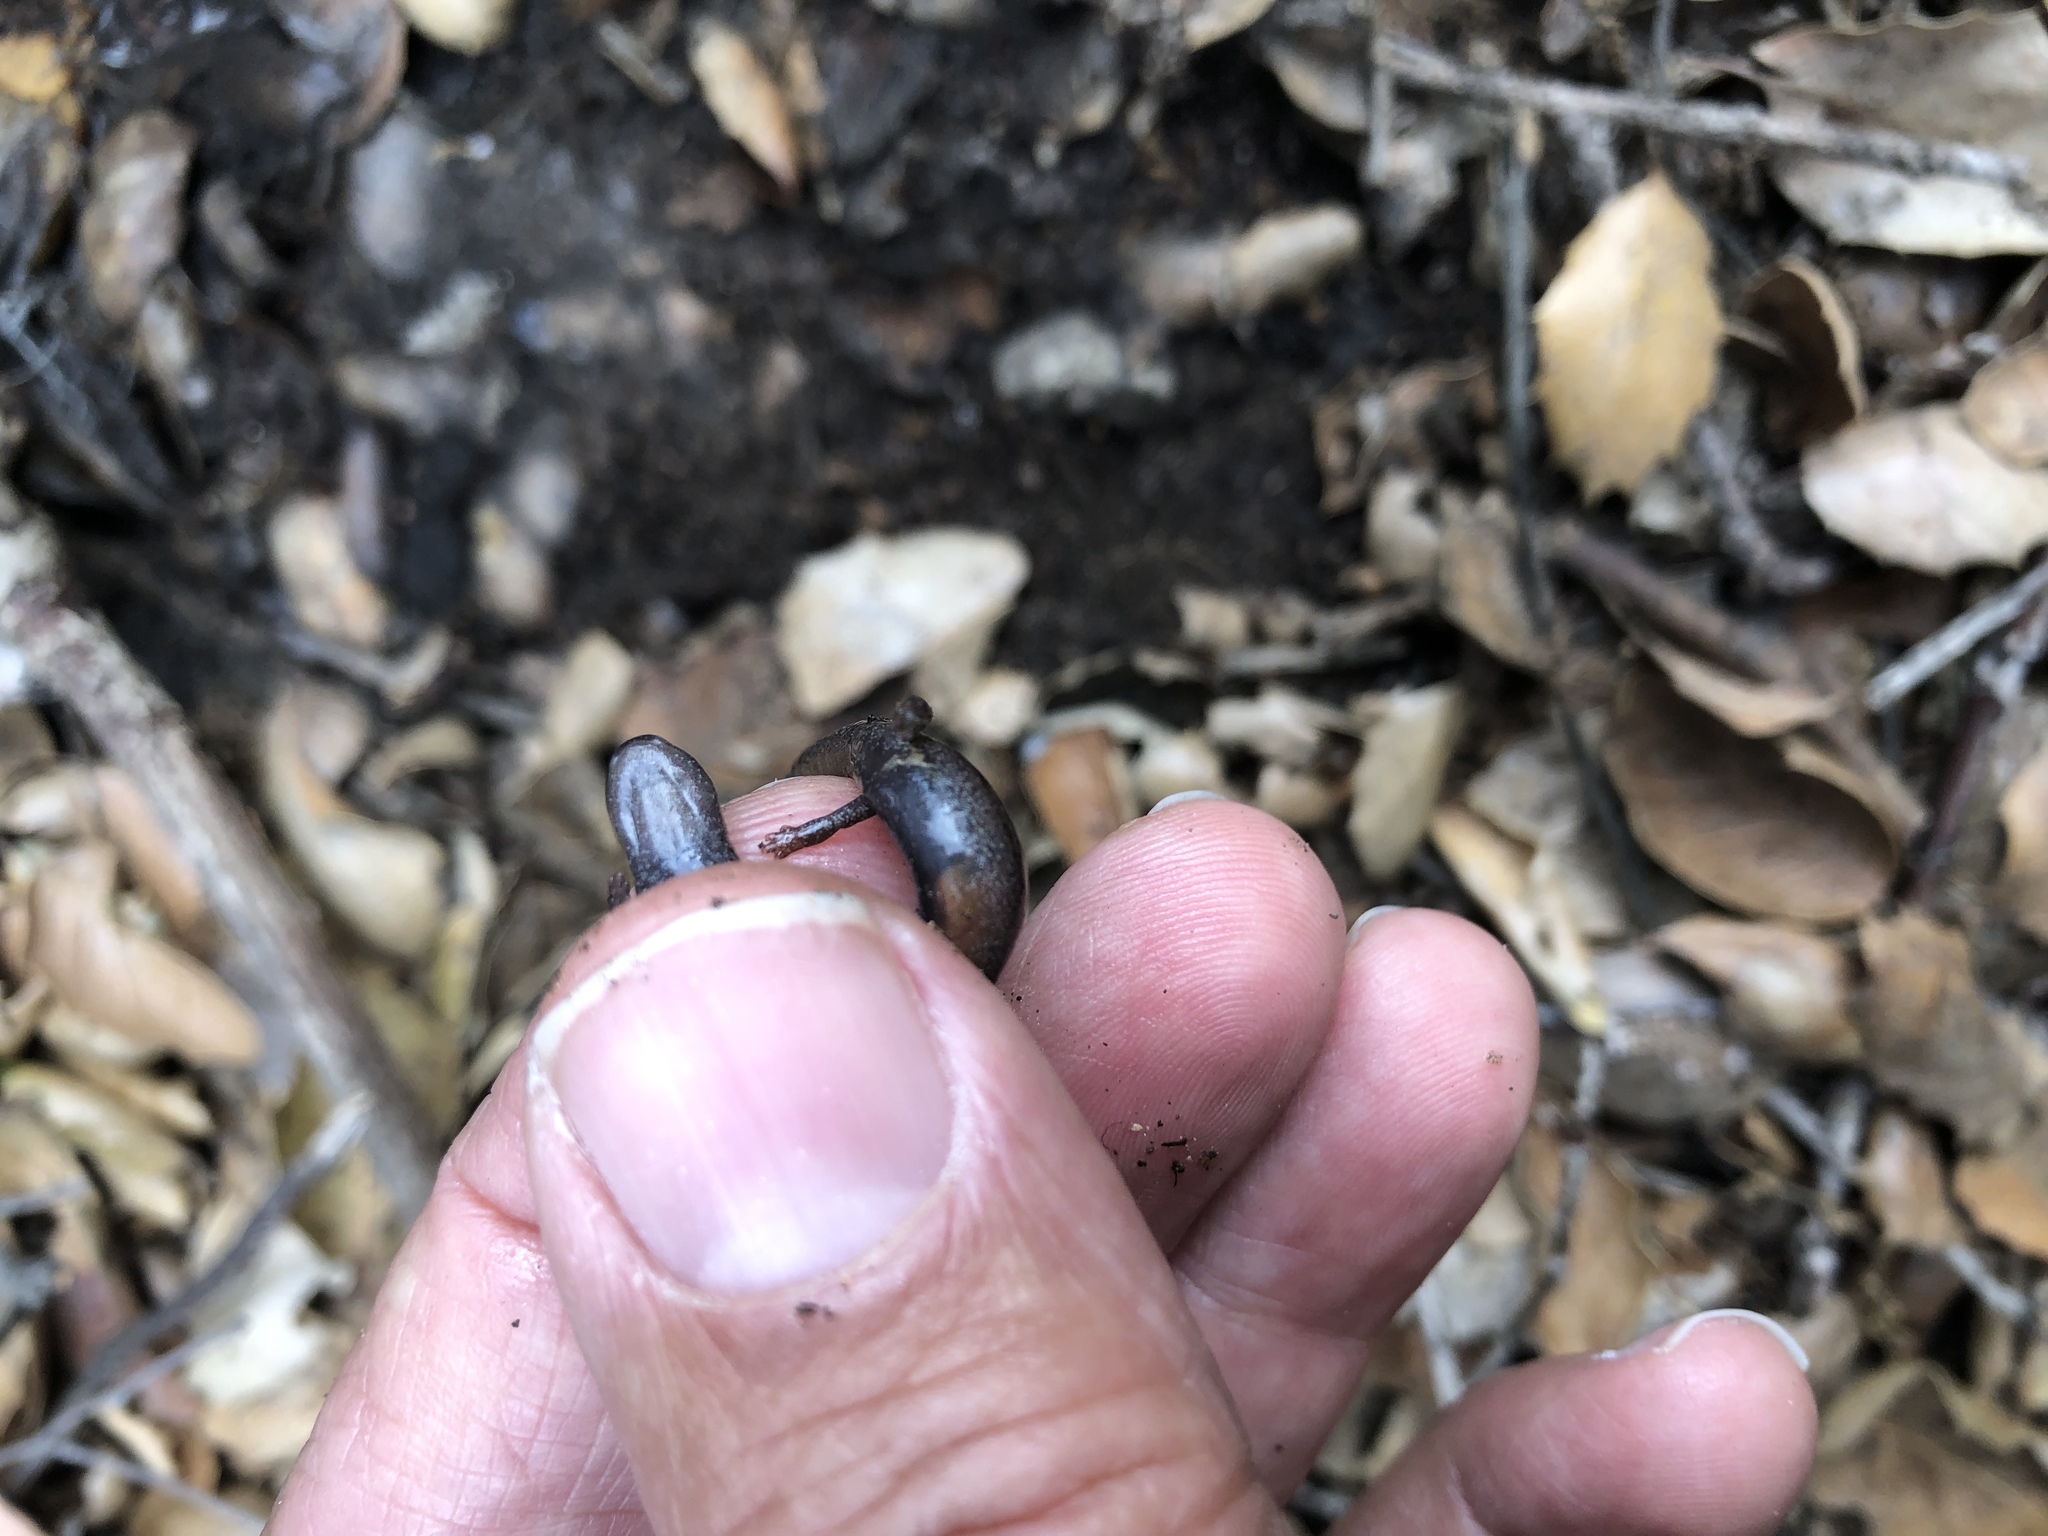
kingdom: Animalia
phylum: Chordata
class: Amphibia
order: Caudata
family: Plethodontidae
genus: Batrachoseps
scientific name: Batrachoseps major
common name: Garden slender salamander
